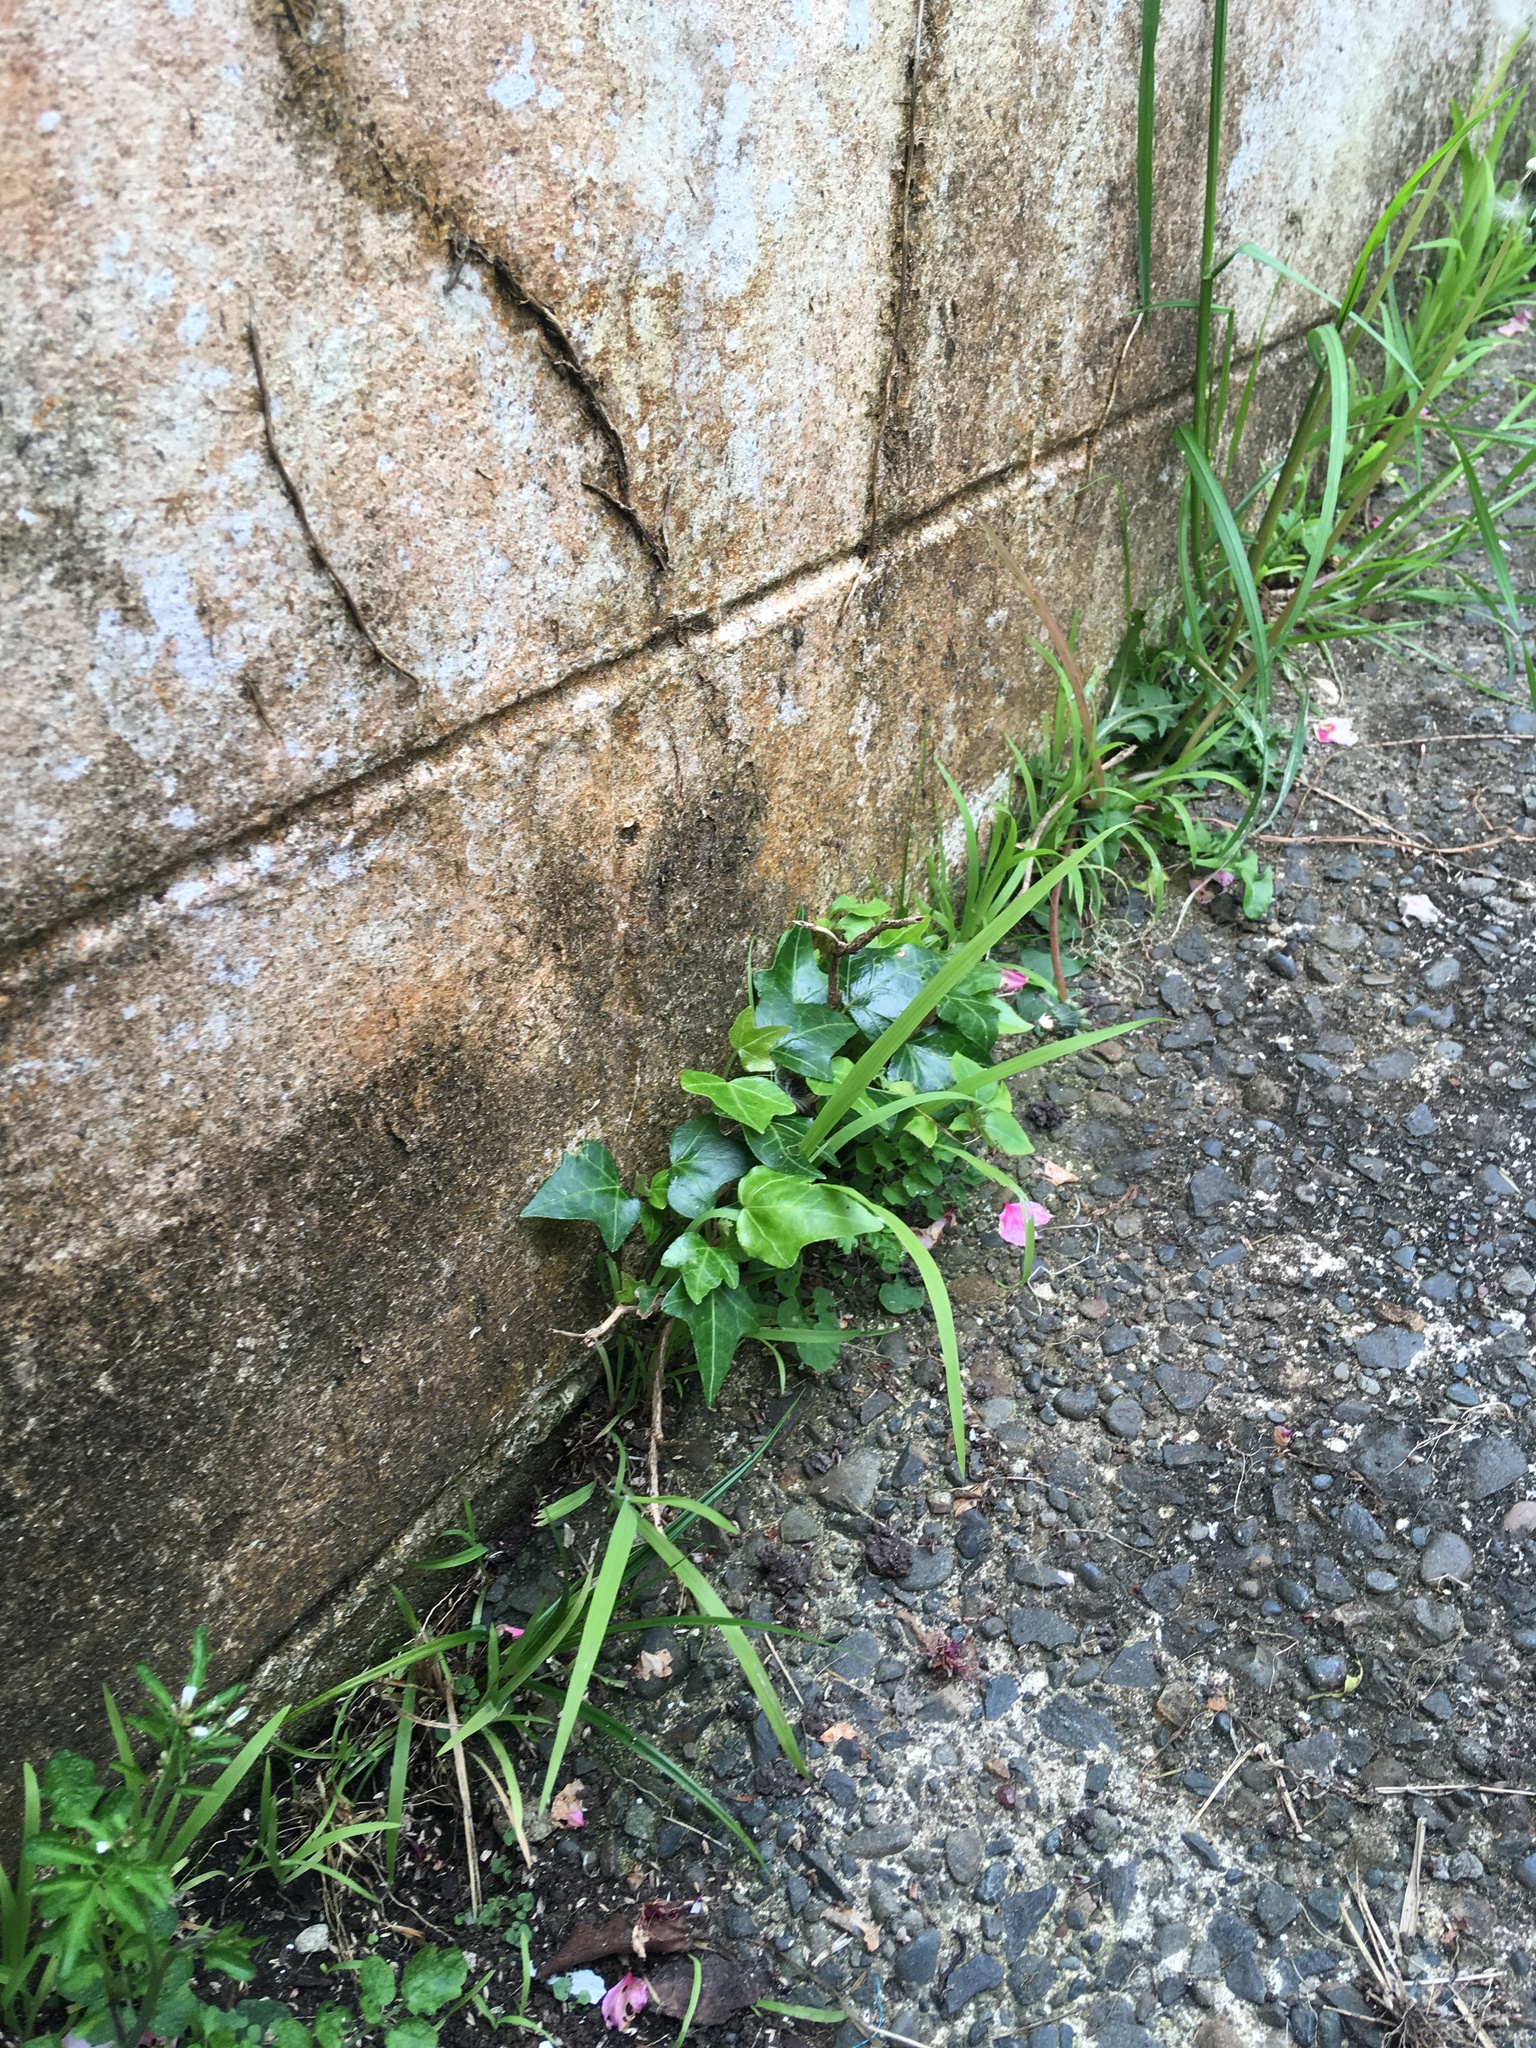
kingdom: Plantae
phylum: Tracheophyta
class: Magnoliopsida
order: Apiales
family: Araliaceae
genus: Hedera
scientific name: Hedera helix
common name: Ivy
